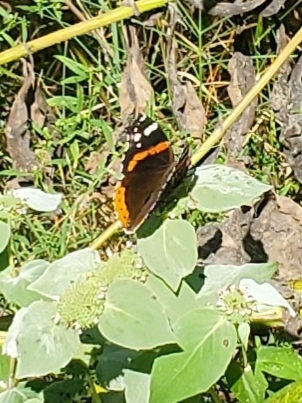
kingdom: Animalia
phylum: Arthropoda
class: Insecta
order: Lepidoptera
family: Nymphalidae
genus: Vanessa
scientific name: Vanessa atalanta
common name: Red admiral
